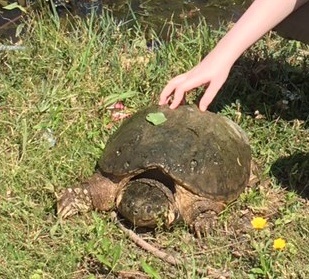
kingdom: Animalia
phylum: Chordata
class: Testudines
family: Chelydridae
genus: Chelydra
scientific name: Chelydra serpentina
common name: Common snapping turtle
